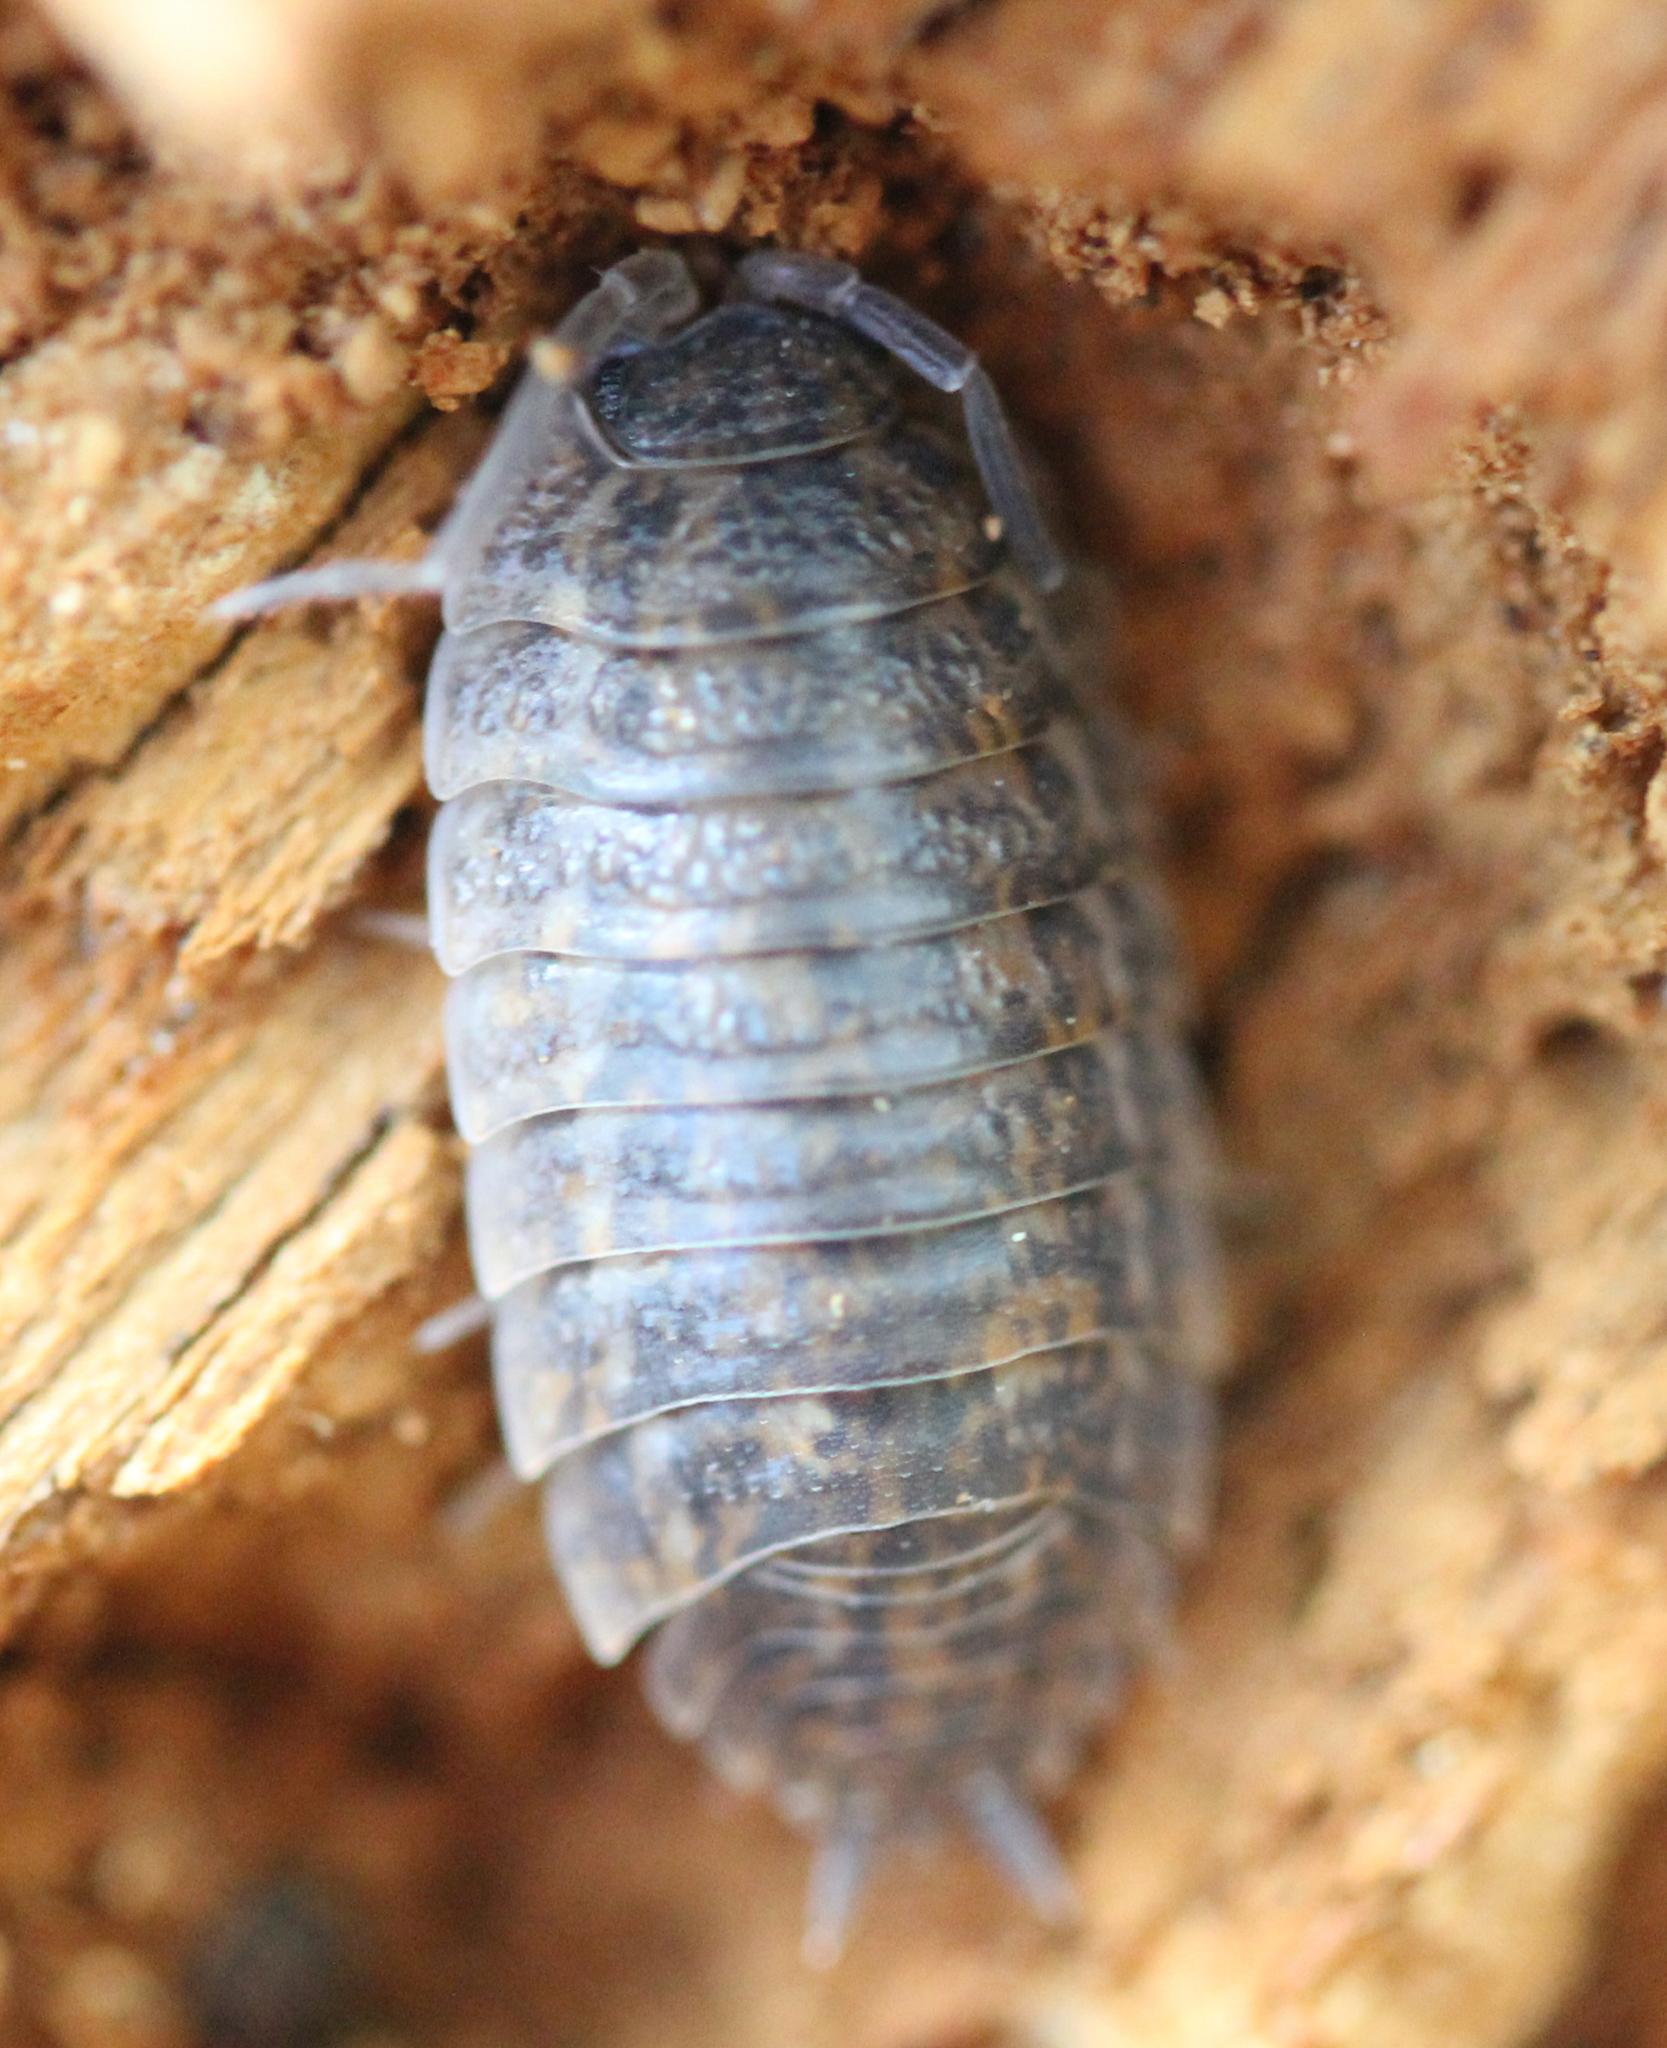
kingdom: Animalia
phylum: Arthropoda
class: Malacostraca
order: Isopoda
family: Trachelipodidae
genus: Trachelipus
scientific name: Trachelipus rathkii
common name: Isopod
